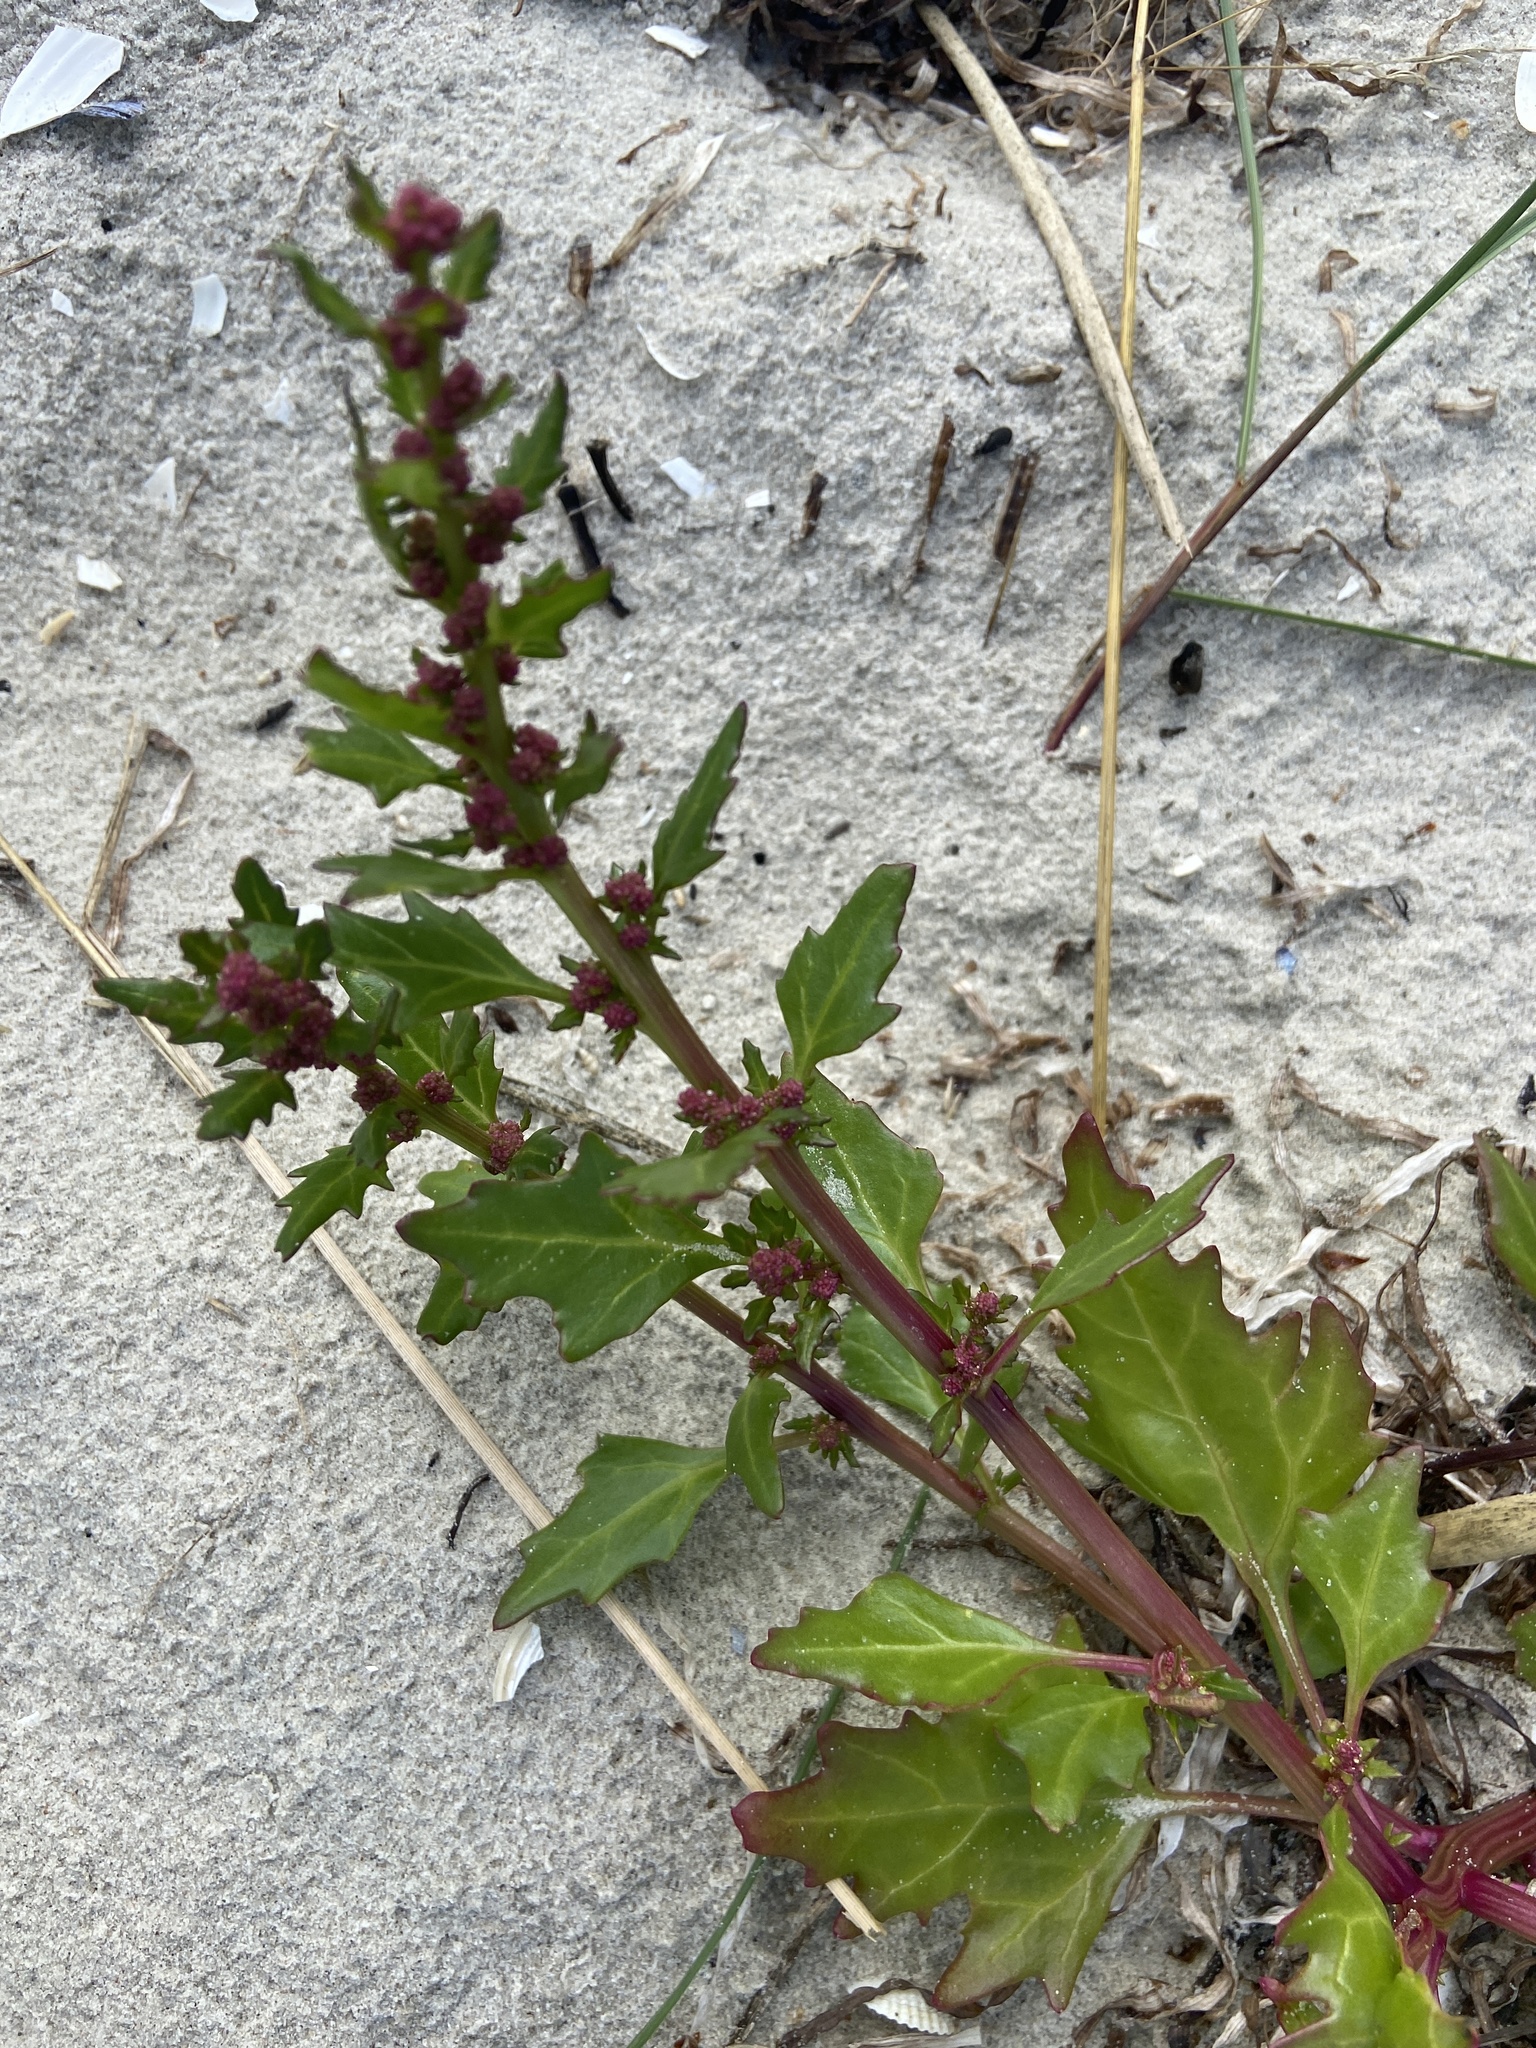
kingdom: Plantae
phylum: Tracheophyta
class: Magnoliopsida
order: Caryophyllales
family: Amaranthaceae
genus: Oxybasis
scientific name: Oxybasis rubra
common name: Red goosefoot
